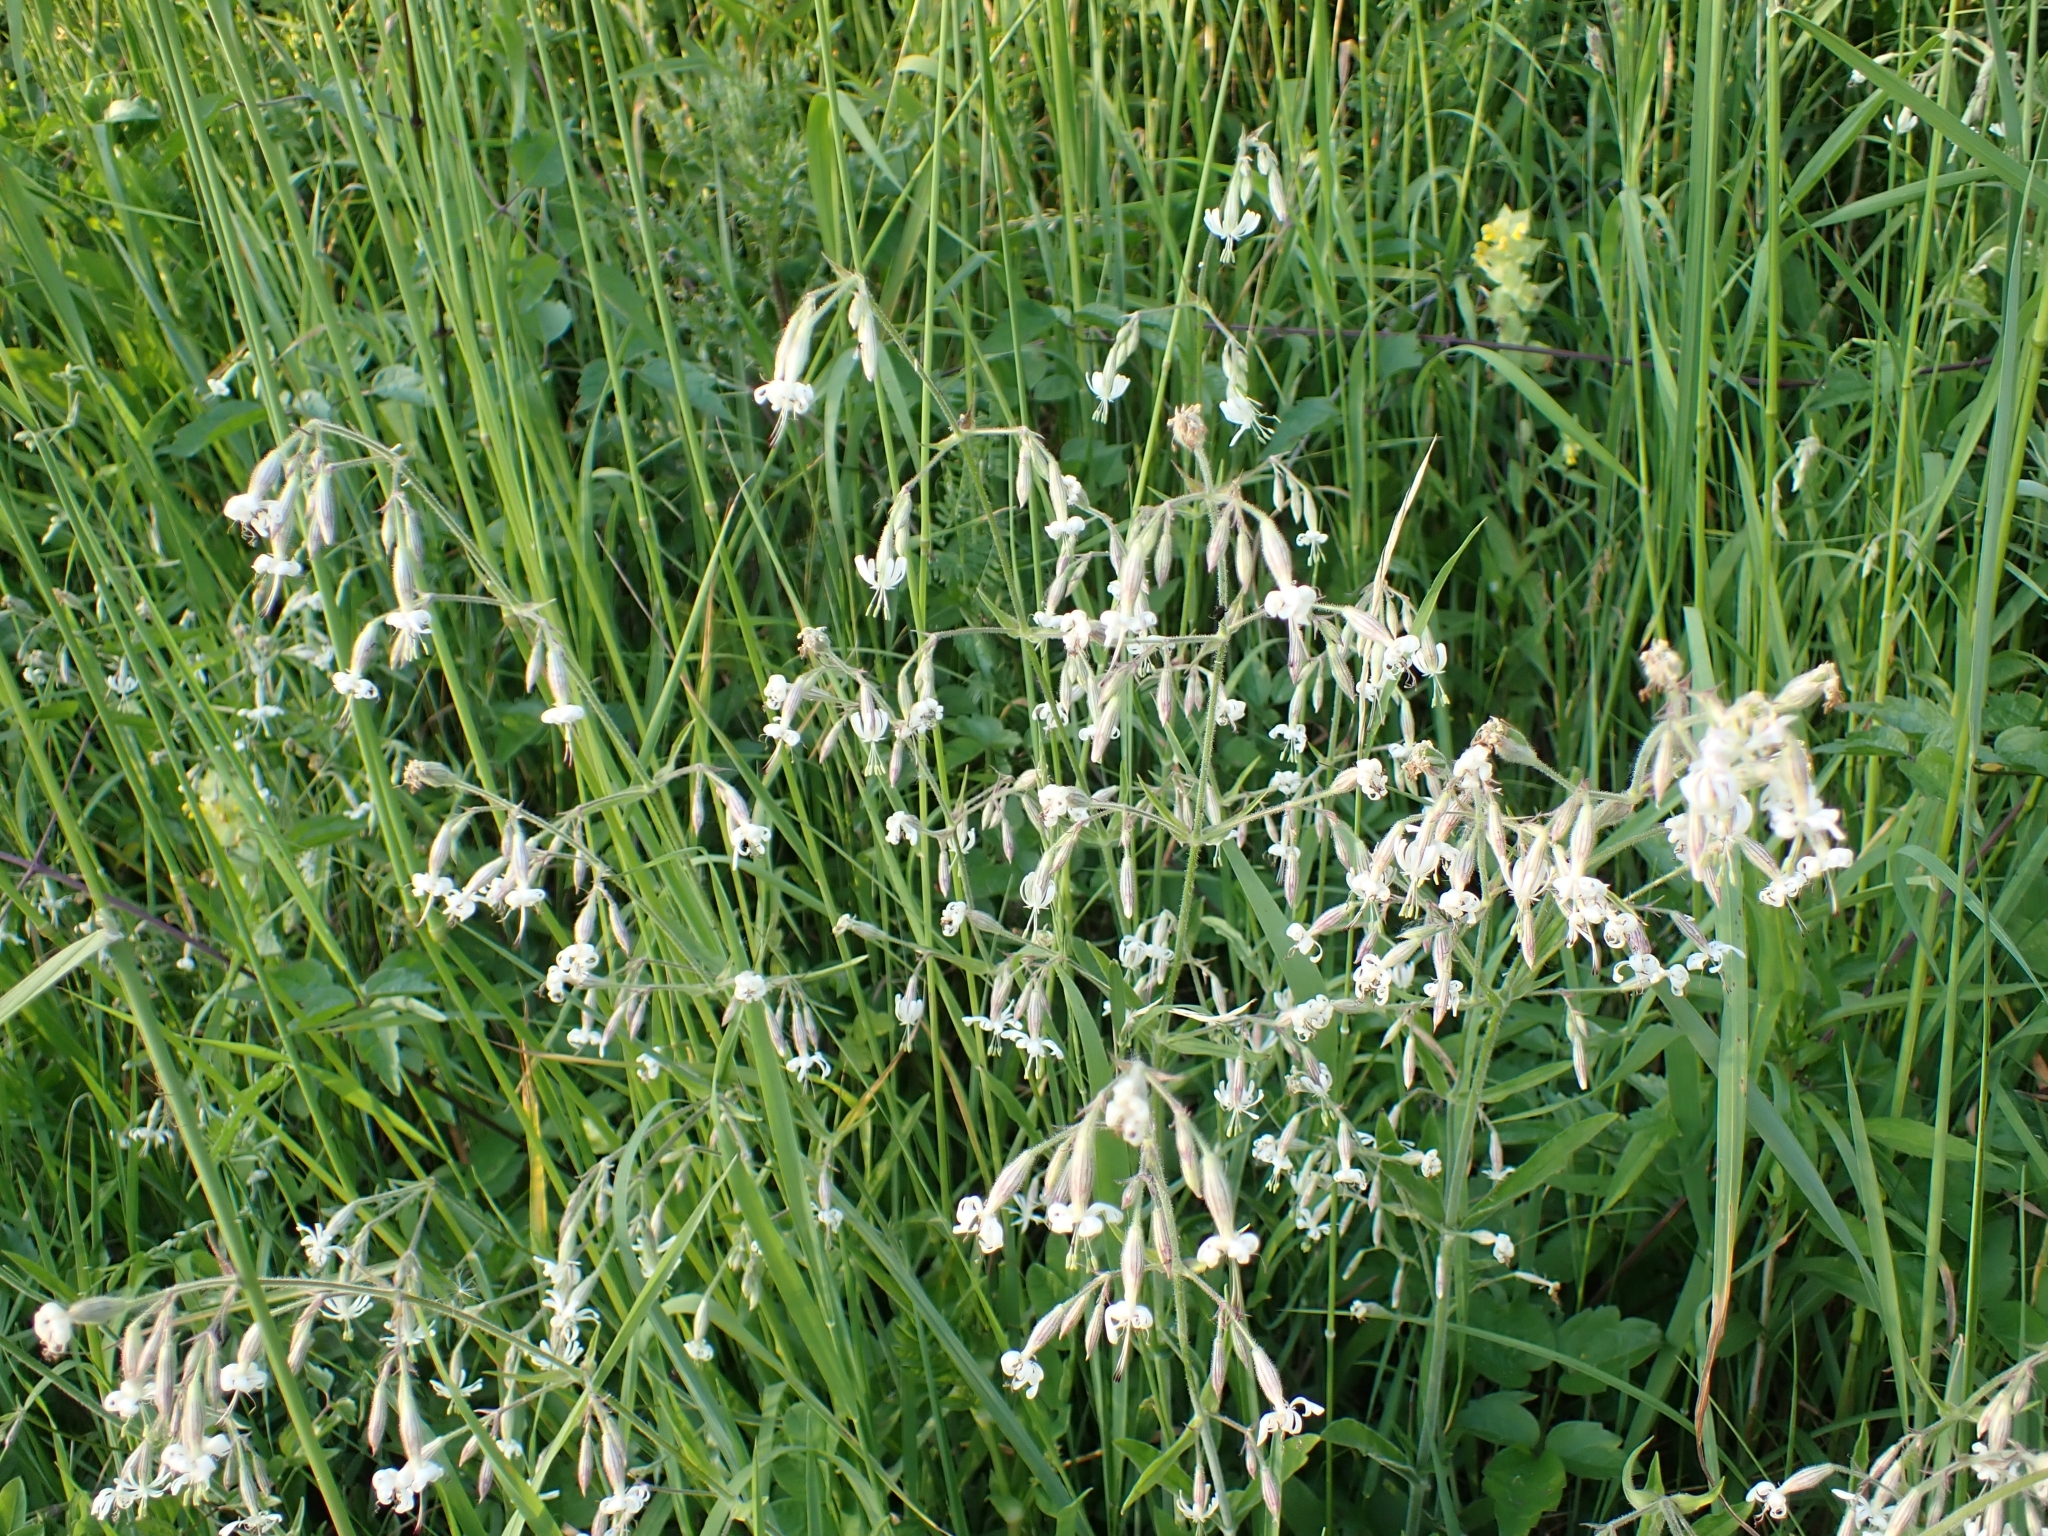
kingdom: Plantae
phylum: Tracheophyta
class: Magnoliopsida
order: Caryophyllales
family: Caryophyllaceae
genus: Silene
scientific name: Silene nutans
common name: Nottingham catchfly
